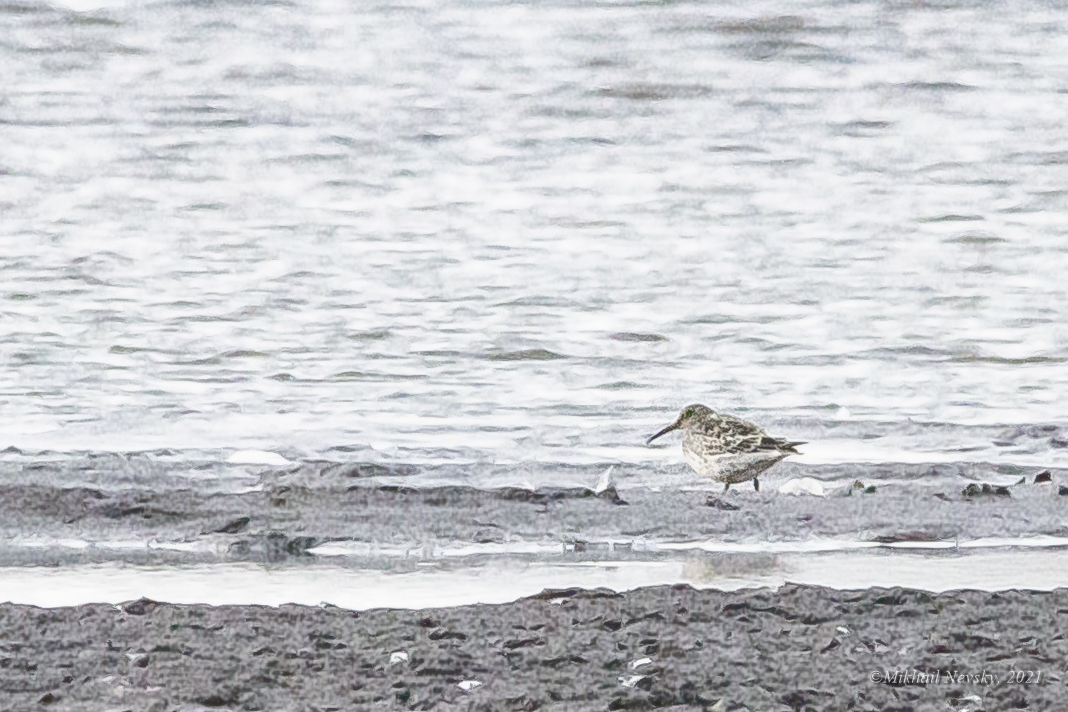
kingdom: Animalia
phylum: Chordata
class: Aves
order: Charadriiformes
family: Scolopacidae
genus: Calidris
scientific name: Calidris maritima
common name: Purple sandpiper
